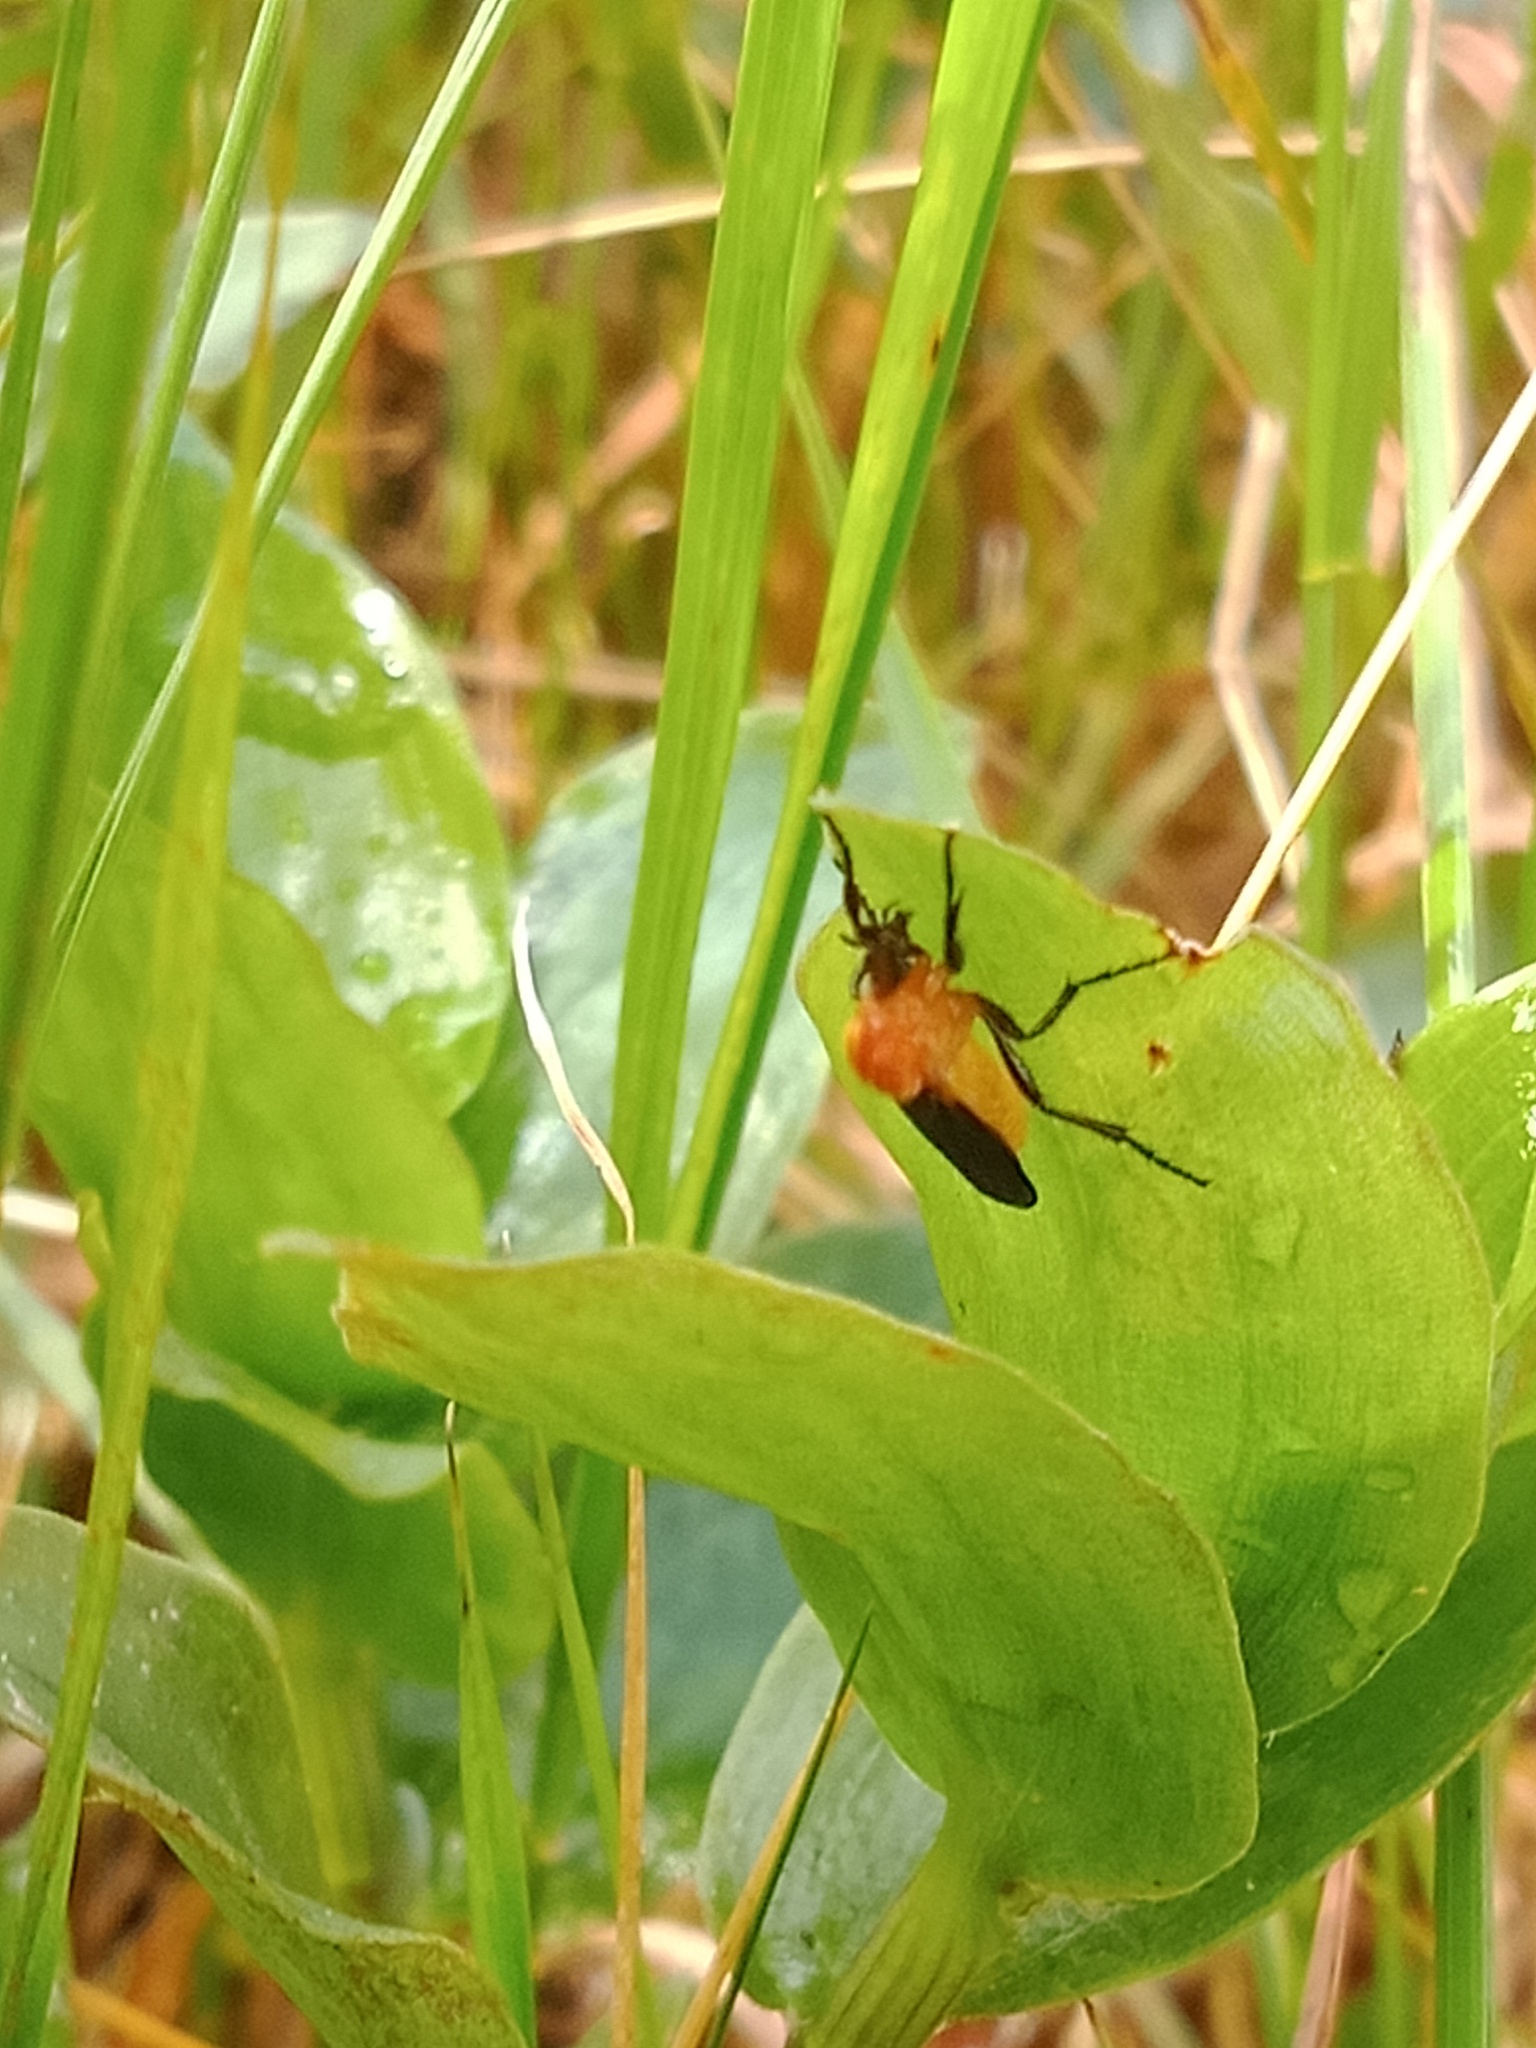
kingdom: Animalia
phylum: Arthropoda
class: Insecta
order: Diptera
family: Bibionidae
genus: Bibio
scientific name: Bibio imitator
